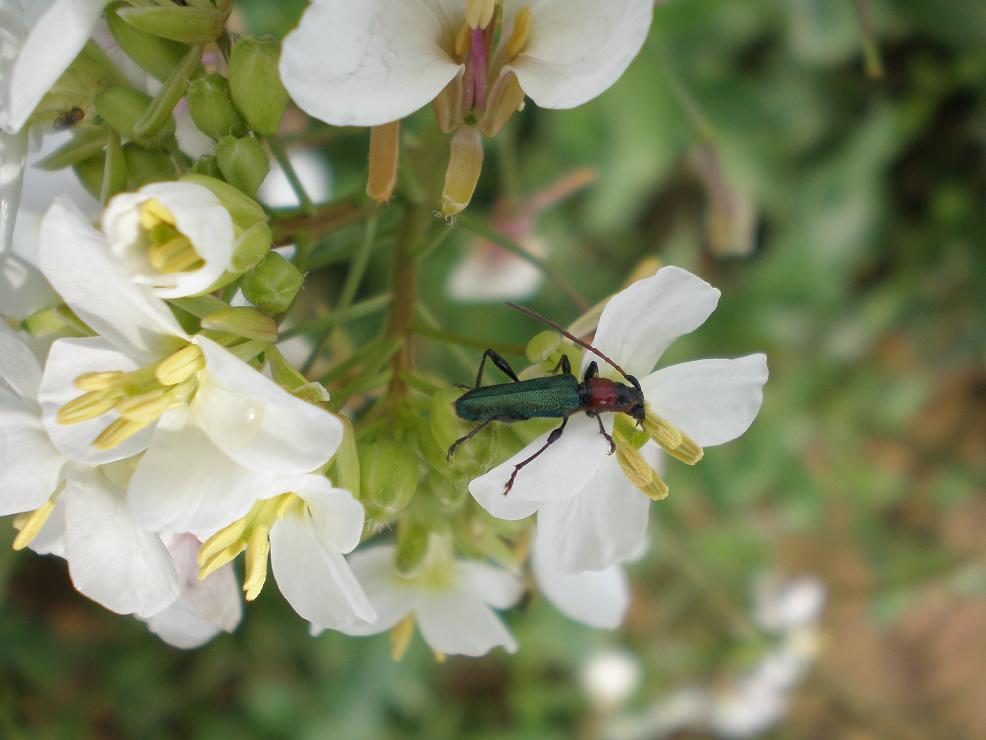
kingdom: Animalia
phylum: Arthropoda
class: Insecta
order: Coleoptera
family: Cerambycidae
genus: Certallum
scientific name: Certallum ebulinum
